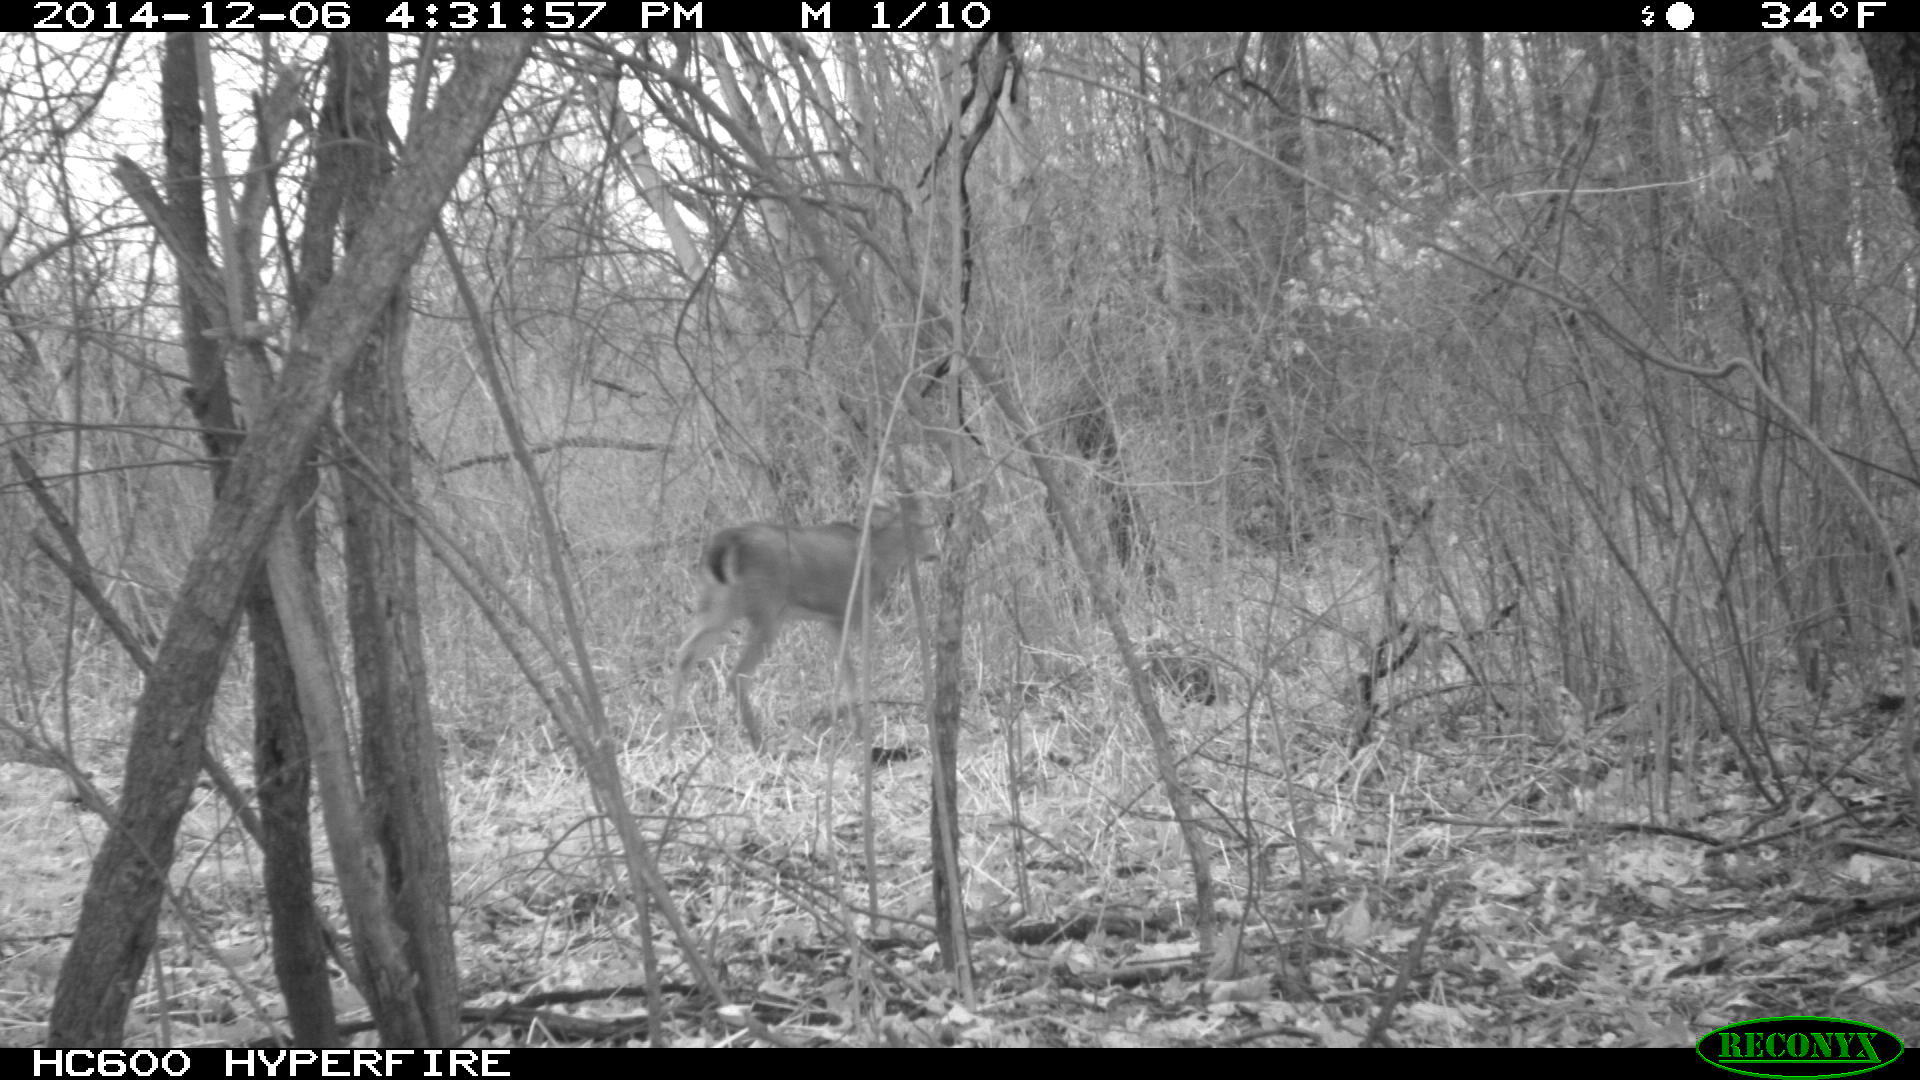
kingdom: Animalia
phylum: Chordata
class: Mammalia
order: Artiodactyla
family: Cervidae
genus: Odocoileus
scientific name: Odocoileus virginianus
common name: White-tailed deer
